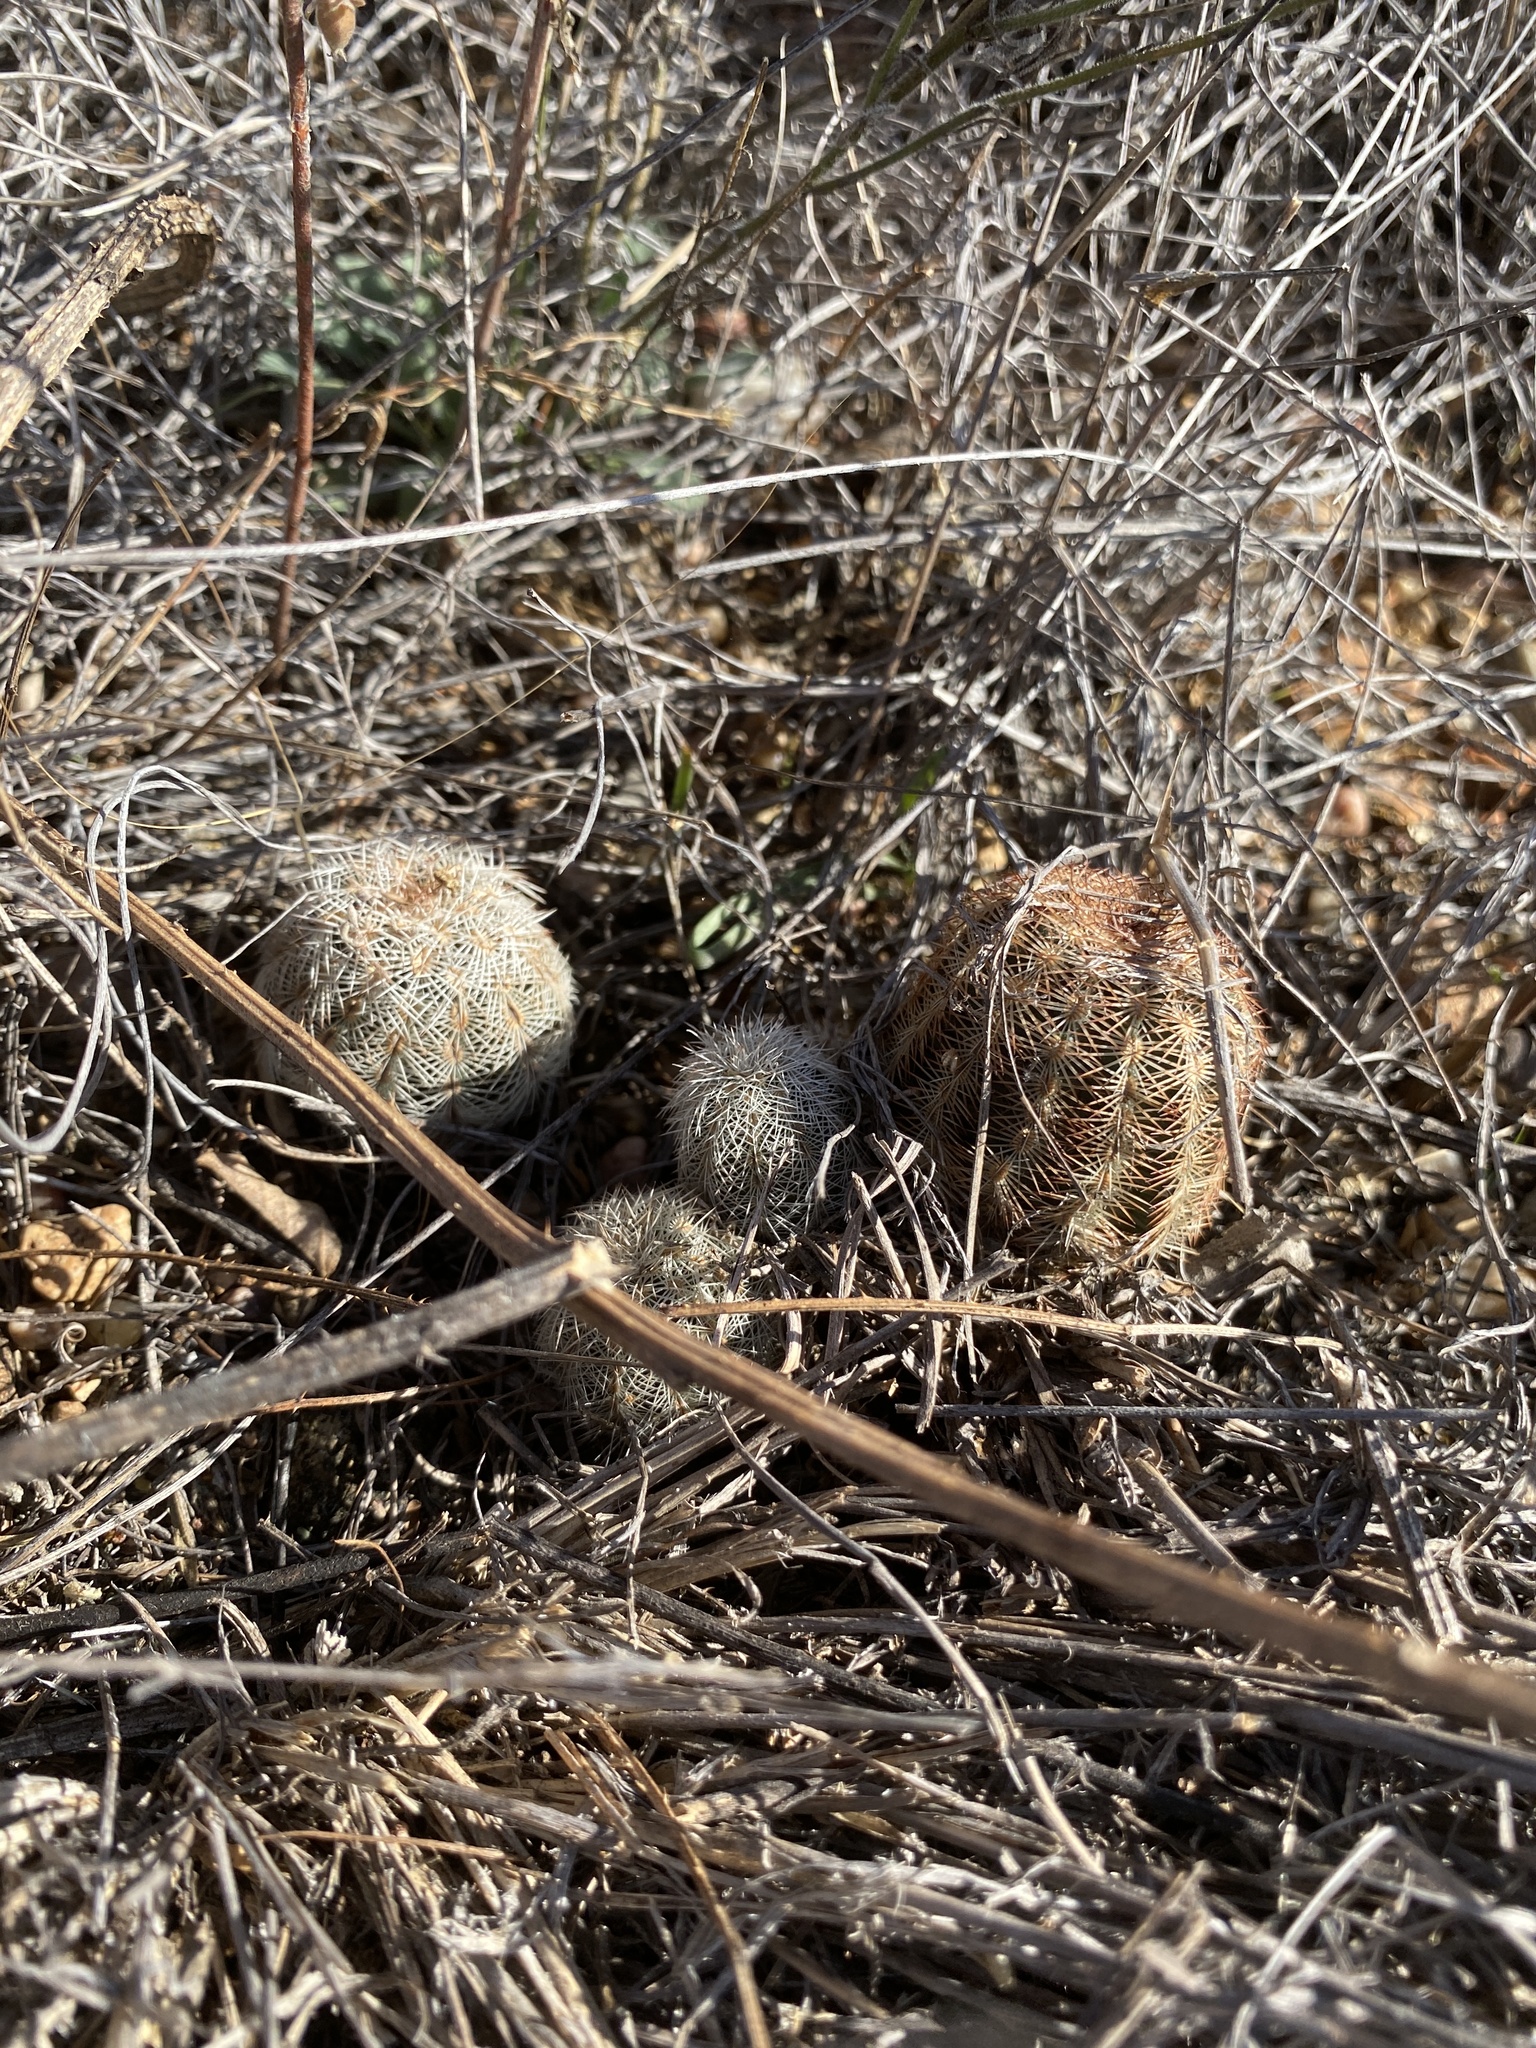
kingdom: Plantae
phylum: Tracheophyta
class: Magnoliopsida
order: Caryophyllales
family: Cactaceae
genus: Echinocereus
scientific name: Echinocereus reichenbachii
